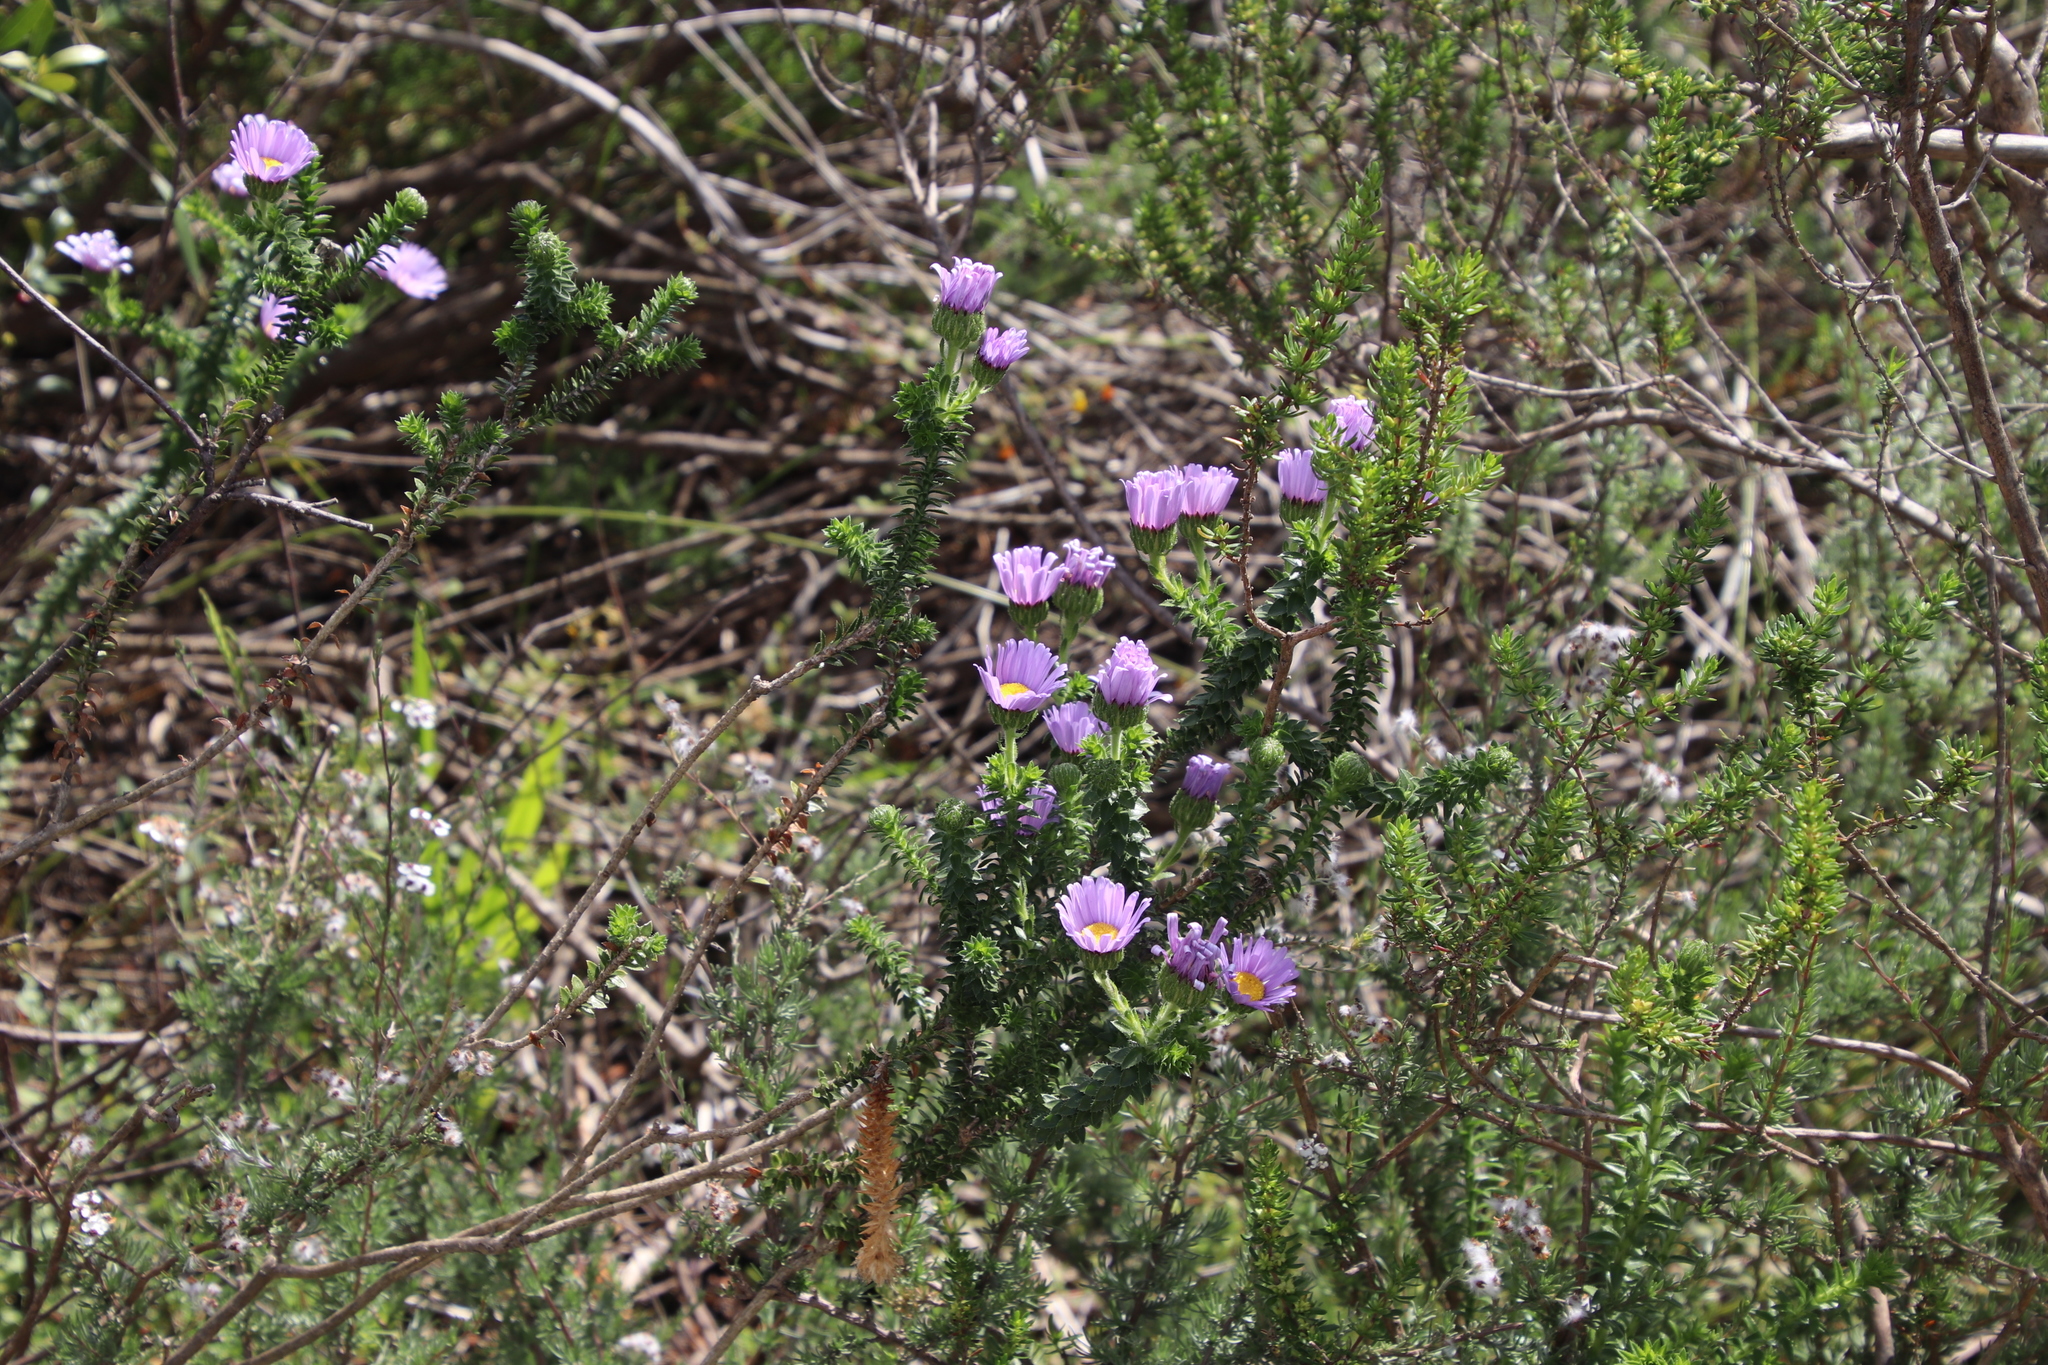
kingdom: Plantae
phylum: Tracheophyta
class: Magnoliopsida
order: Asterales
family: Asteraceae
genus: Felicia
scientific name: Felicia echinata
